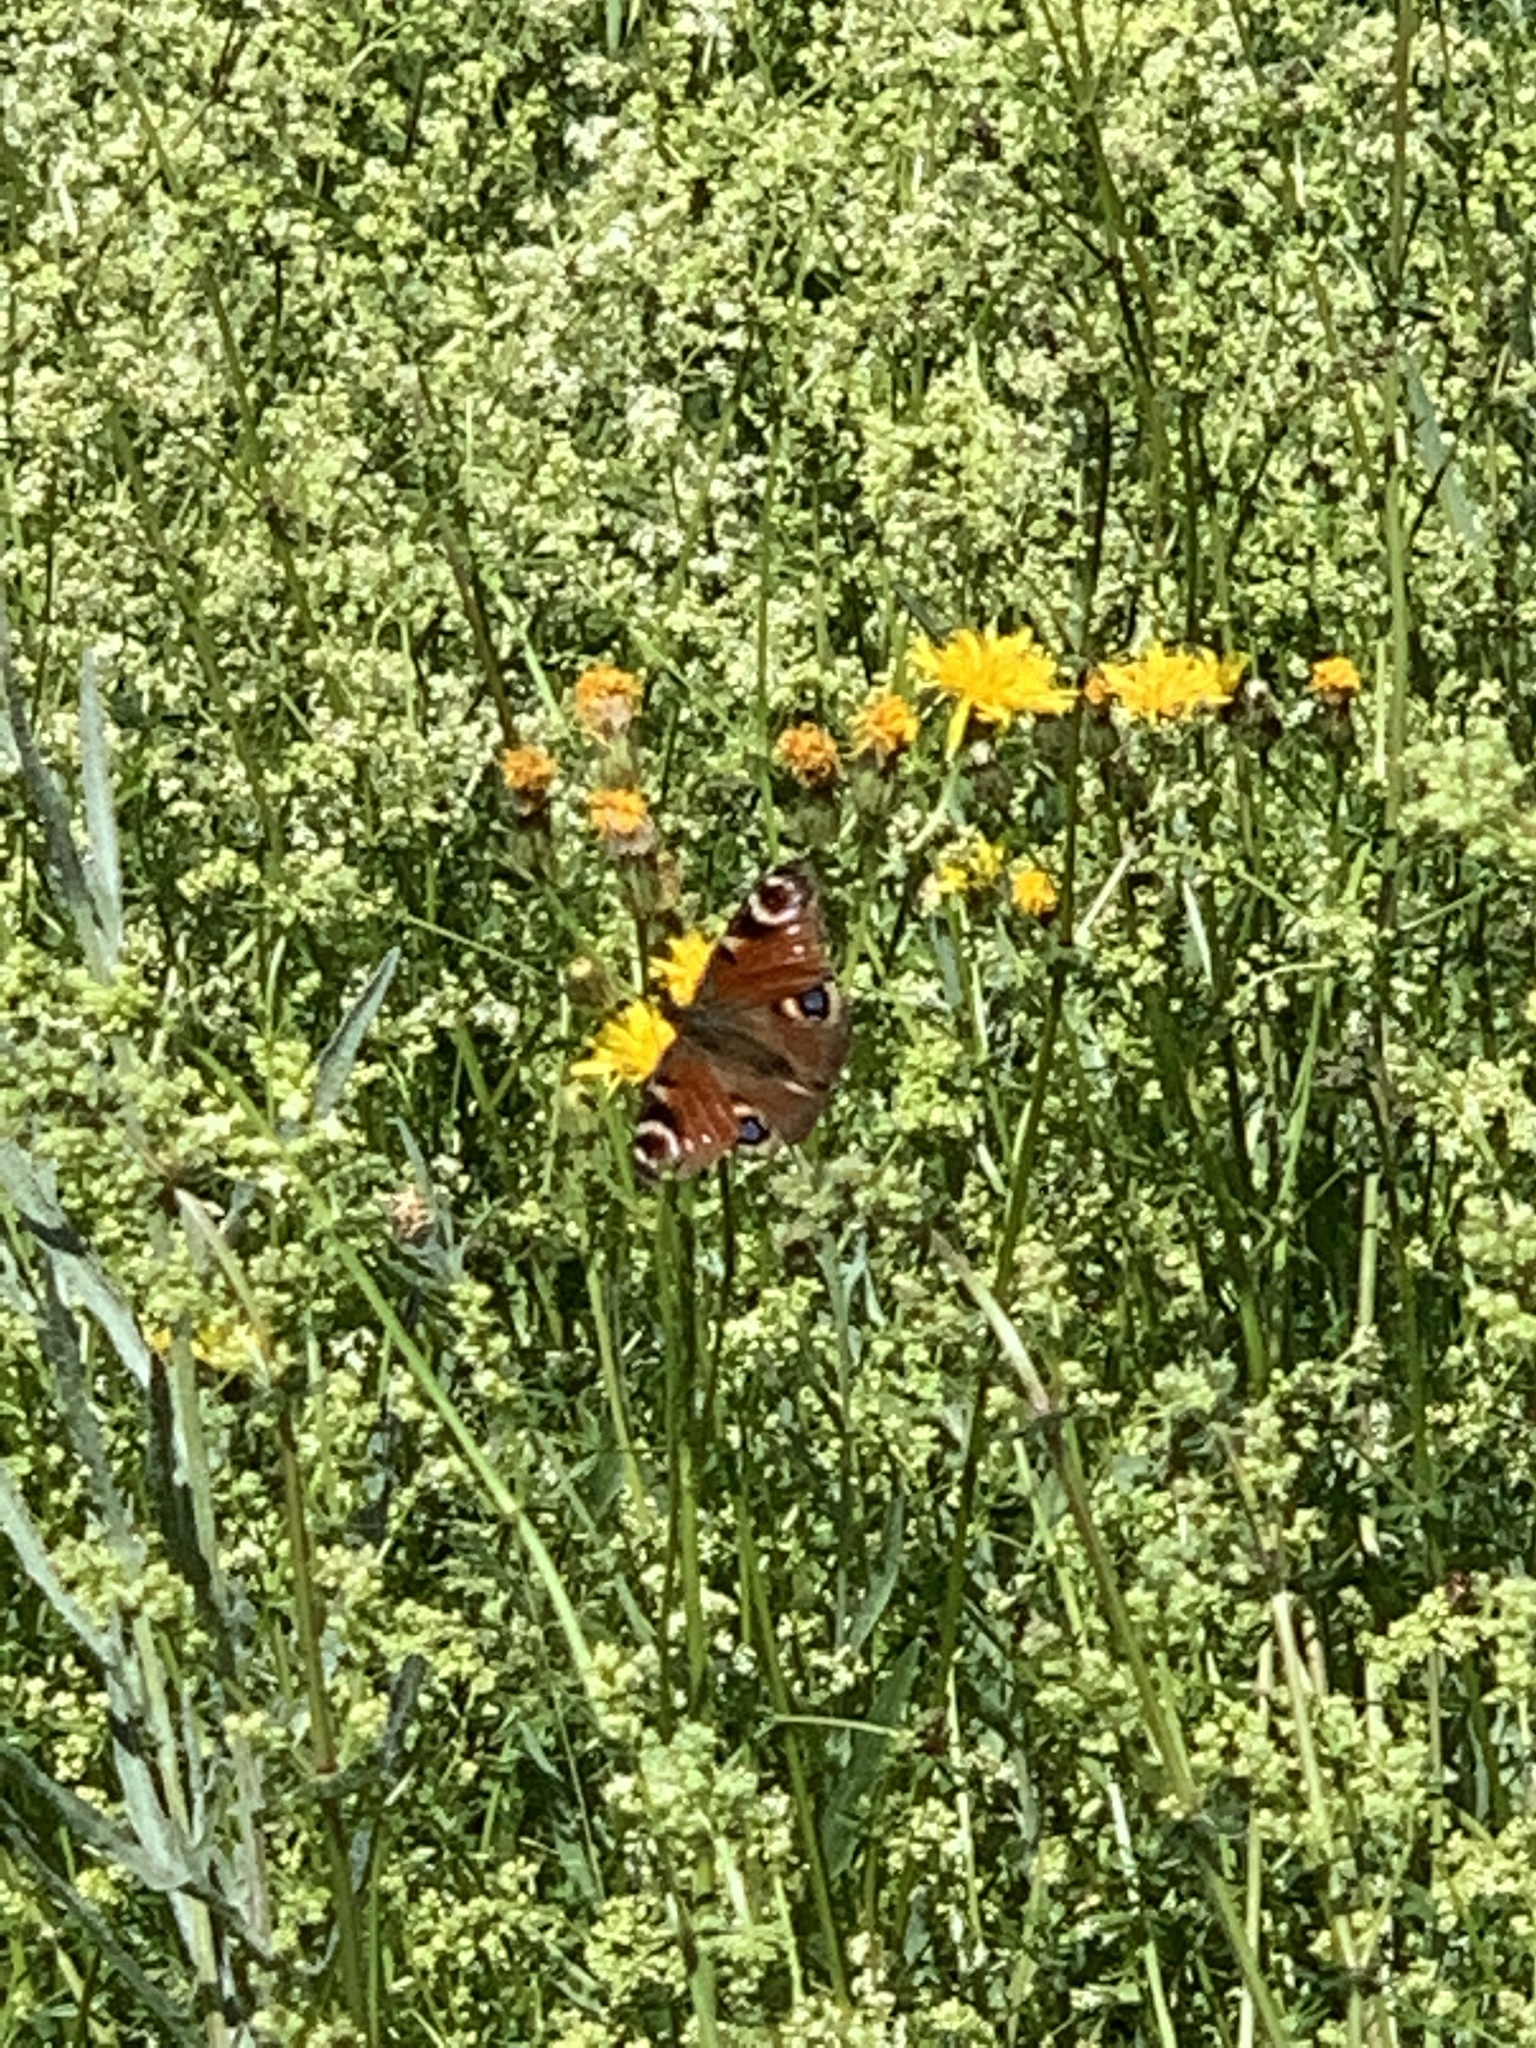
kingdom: Animalia
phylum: Arthropoda
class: Insecta
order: Lepidoptera
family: Nymphalidae
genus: Aglais
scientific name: Aglais io
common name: Peacock
